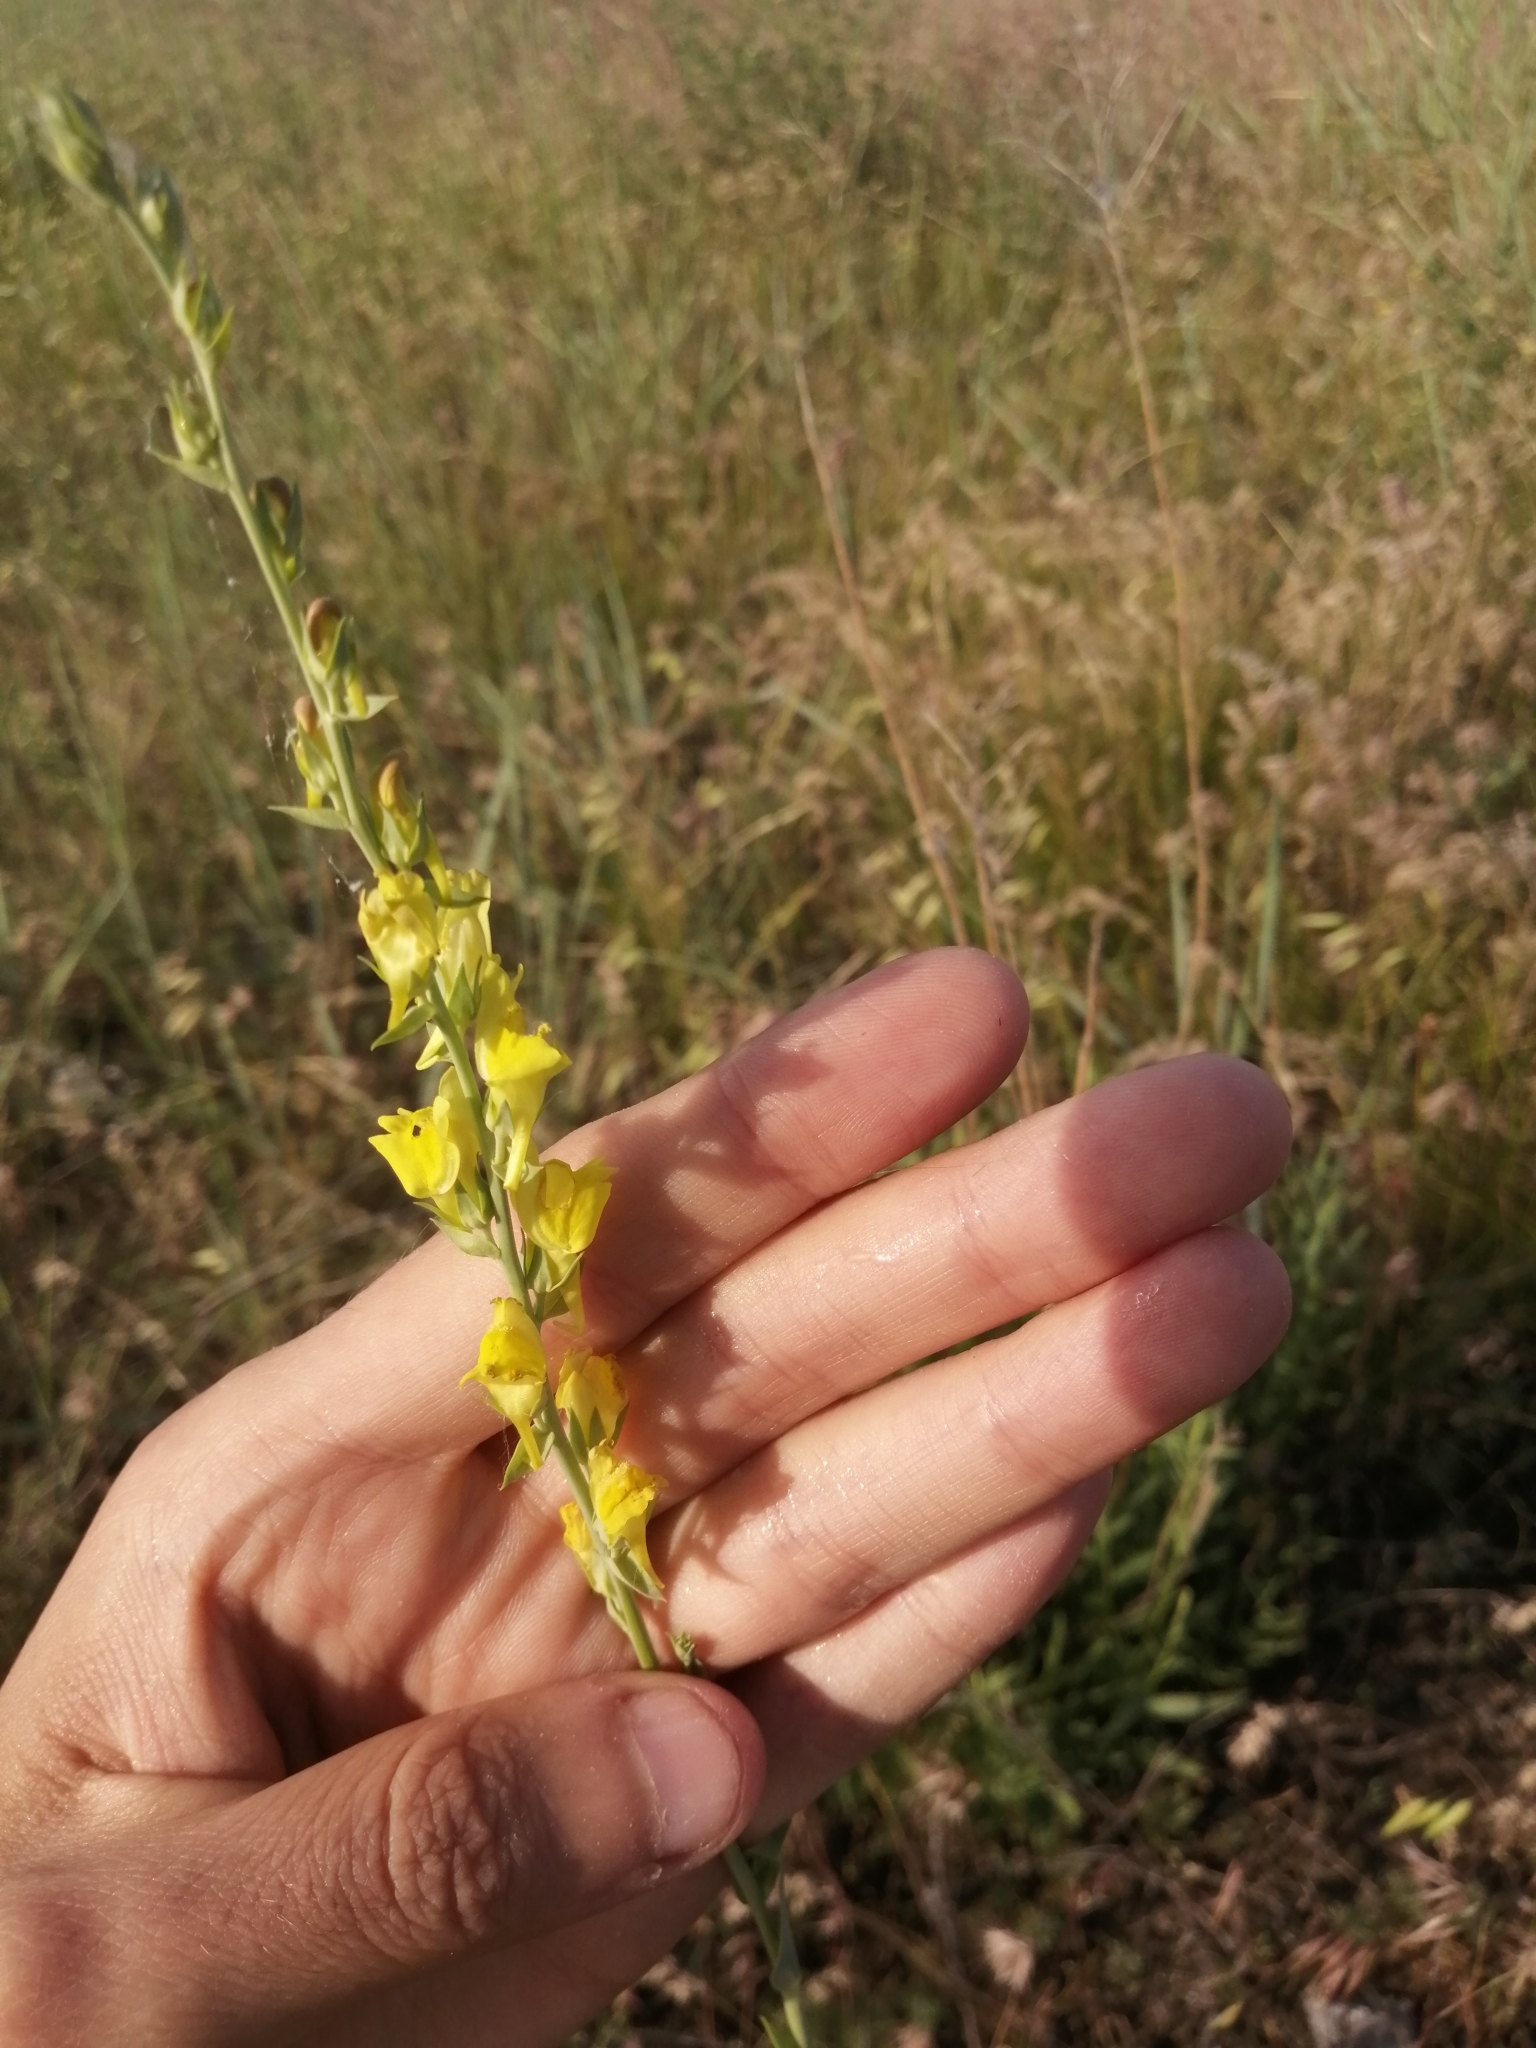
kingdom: Plantae
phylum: Tracheophyta
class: Magnoliopsida
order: Lamiales
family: Plantaginaceae
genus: Linaria
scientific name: Linaria genistifolia
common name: Broomleaf toadflax
